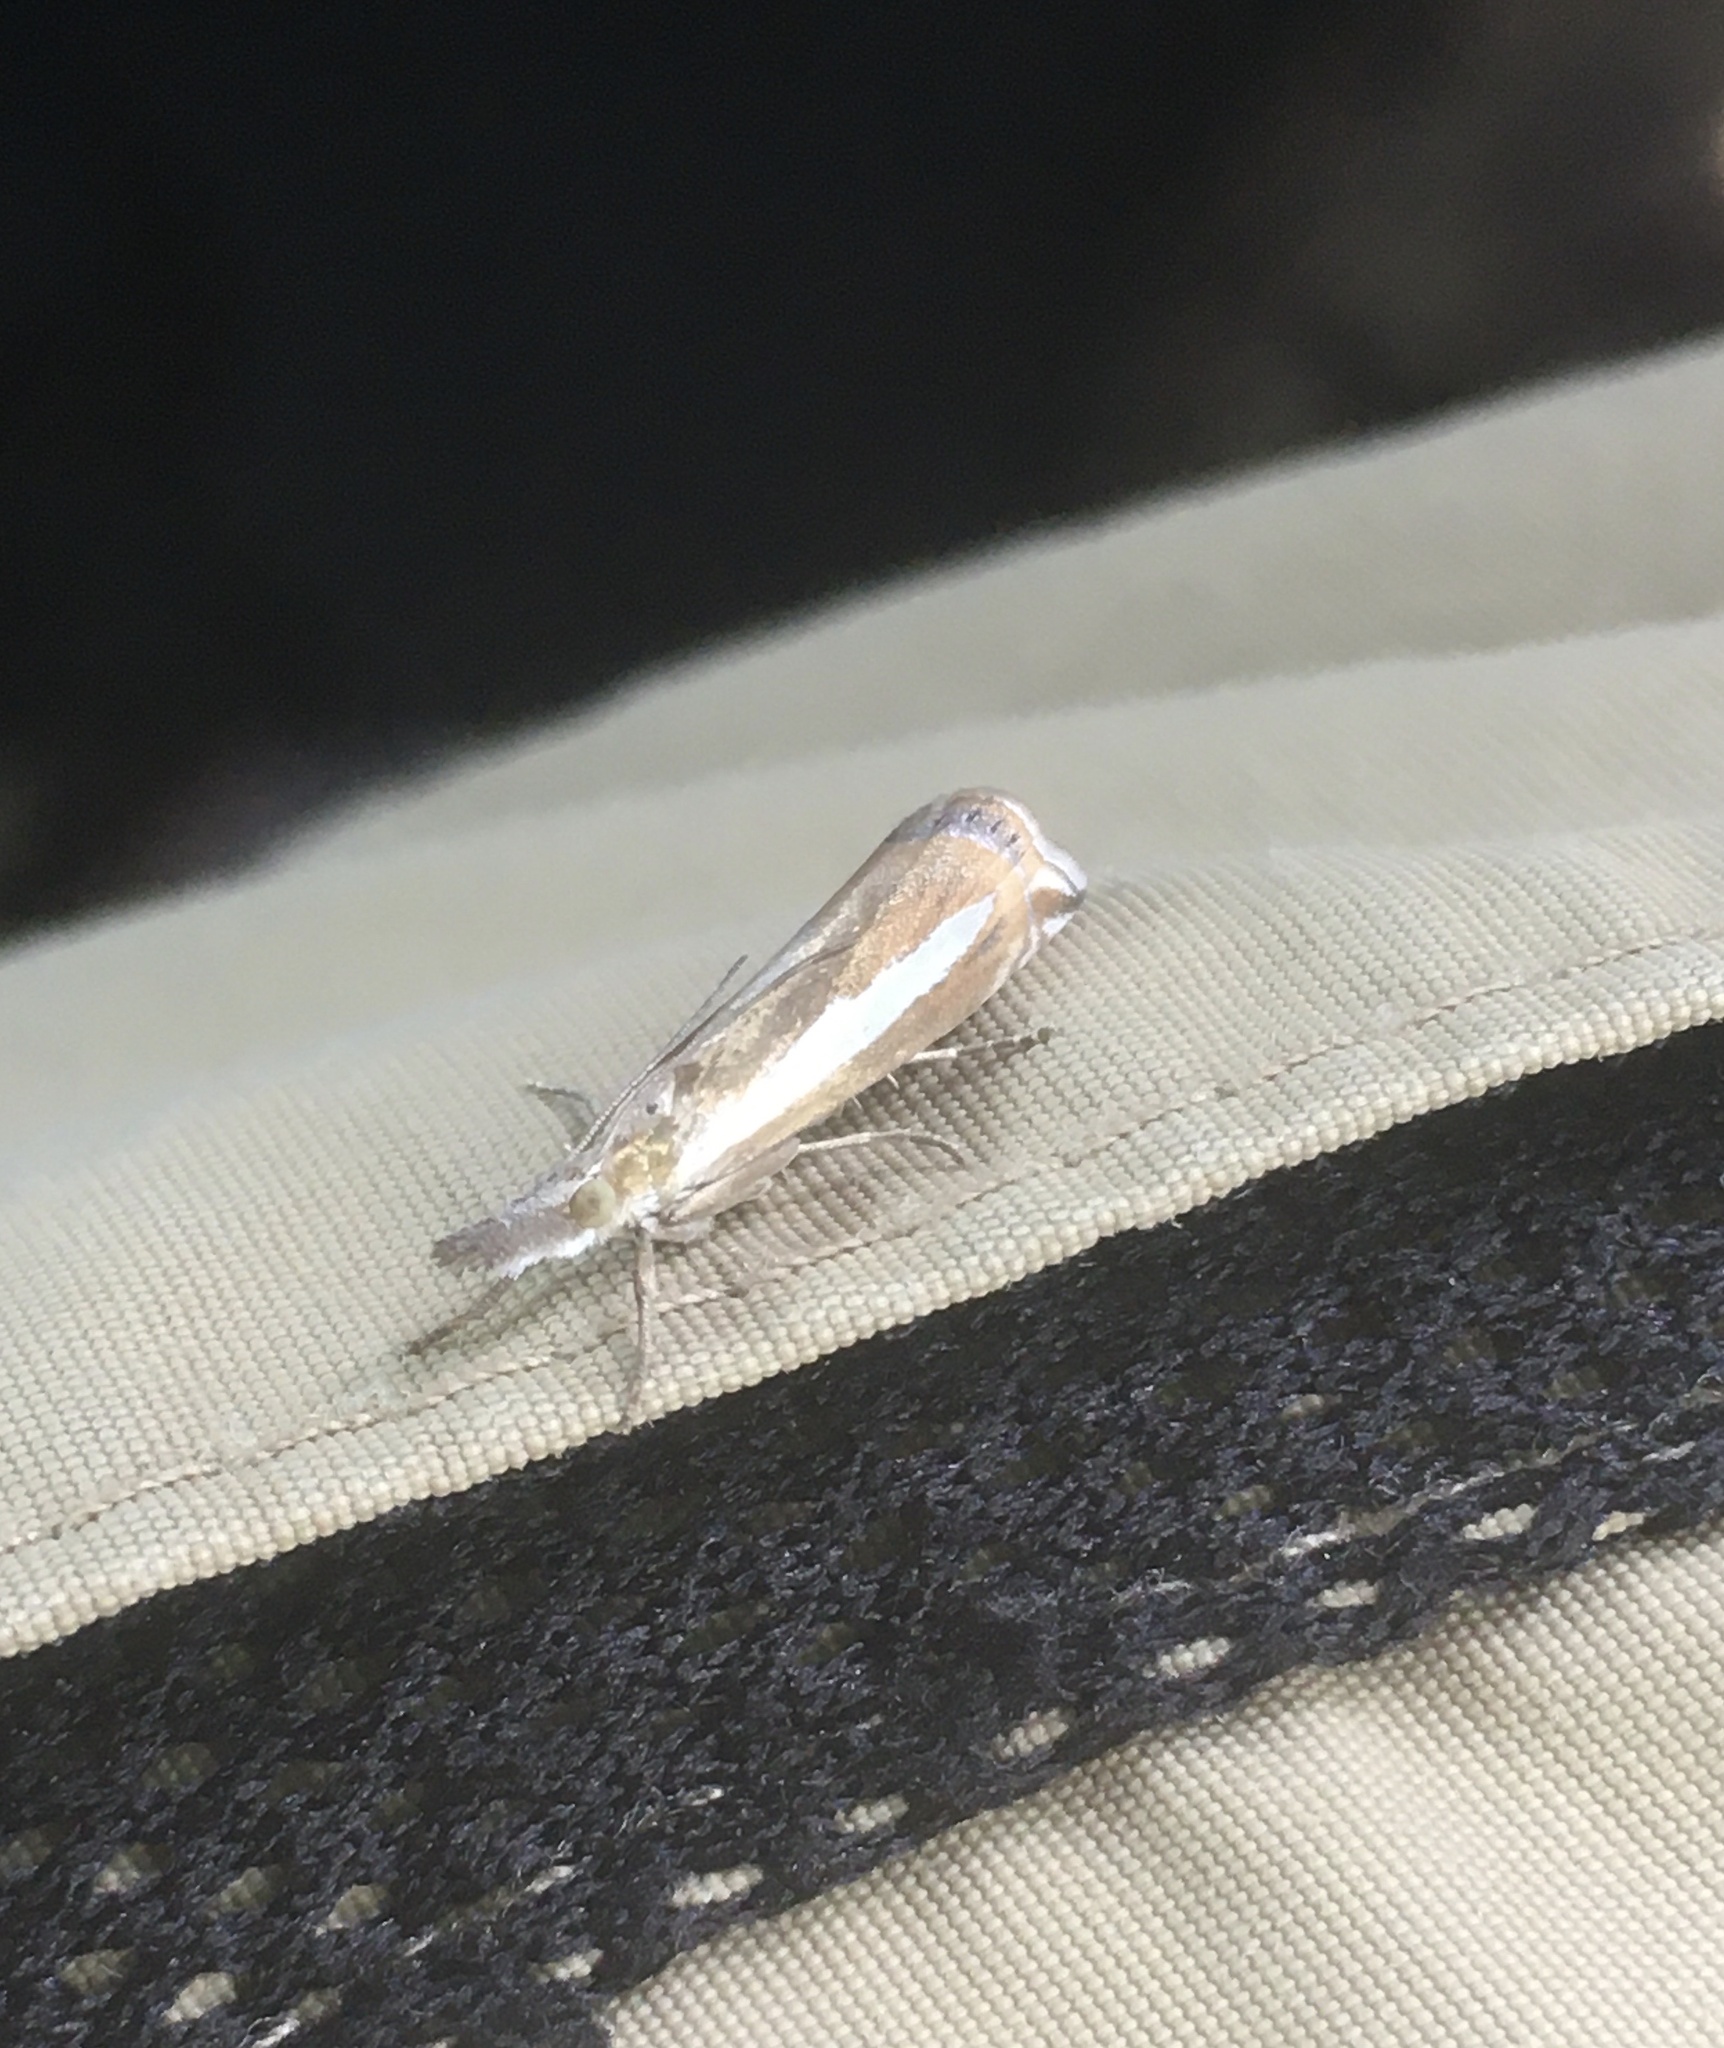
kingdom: Animalia
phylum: Arthropoda
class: Insecta
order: Lepidoptera
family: Crambidae
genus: Crambus
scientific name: Crambus praefectellus
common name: Common grass-veneer
